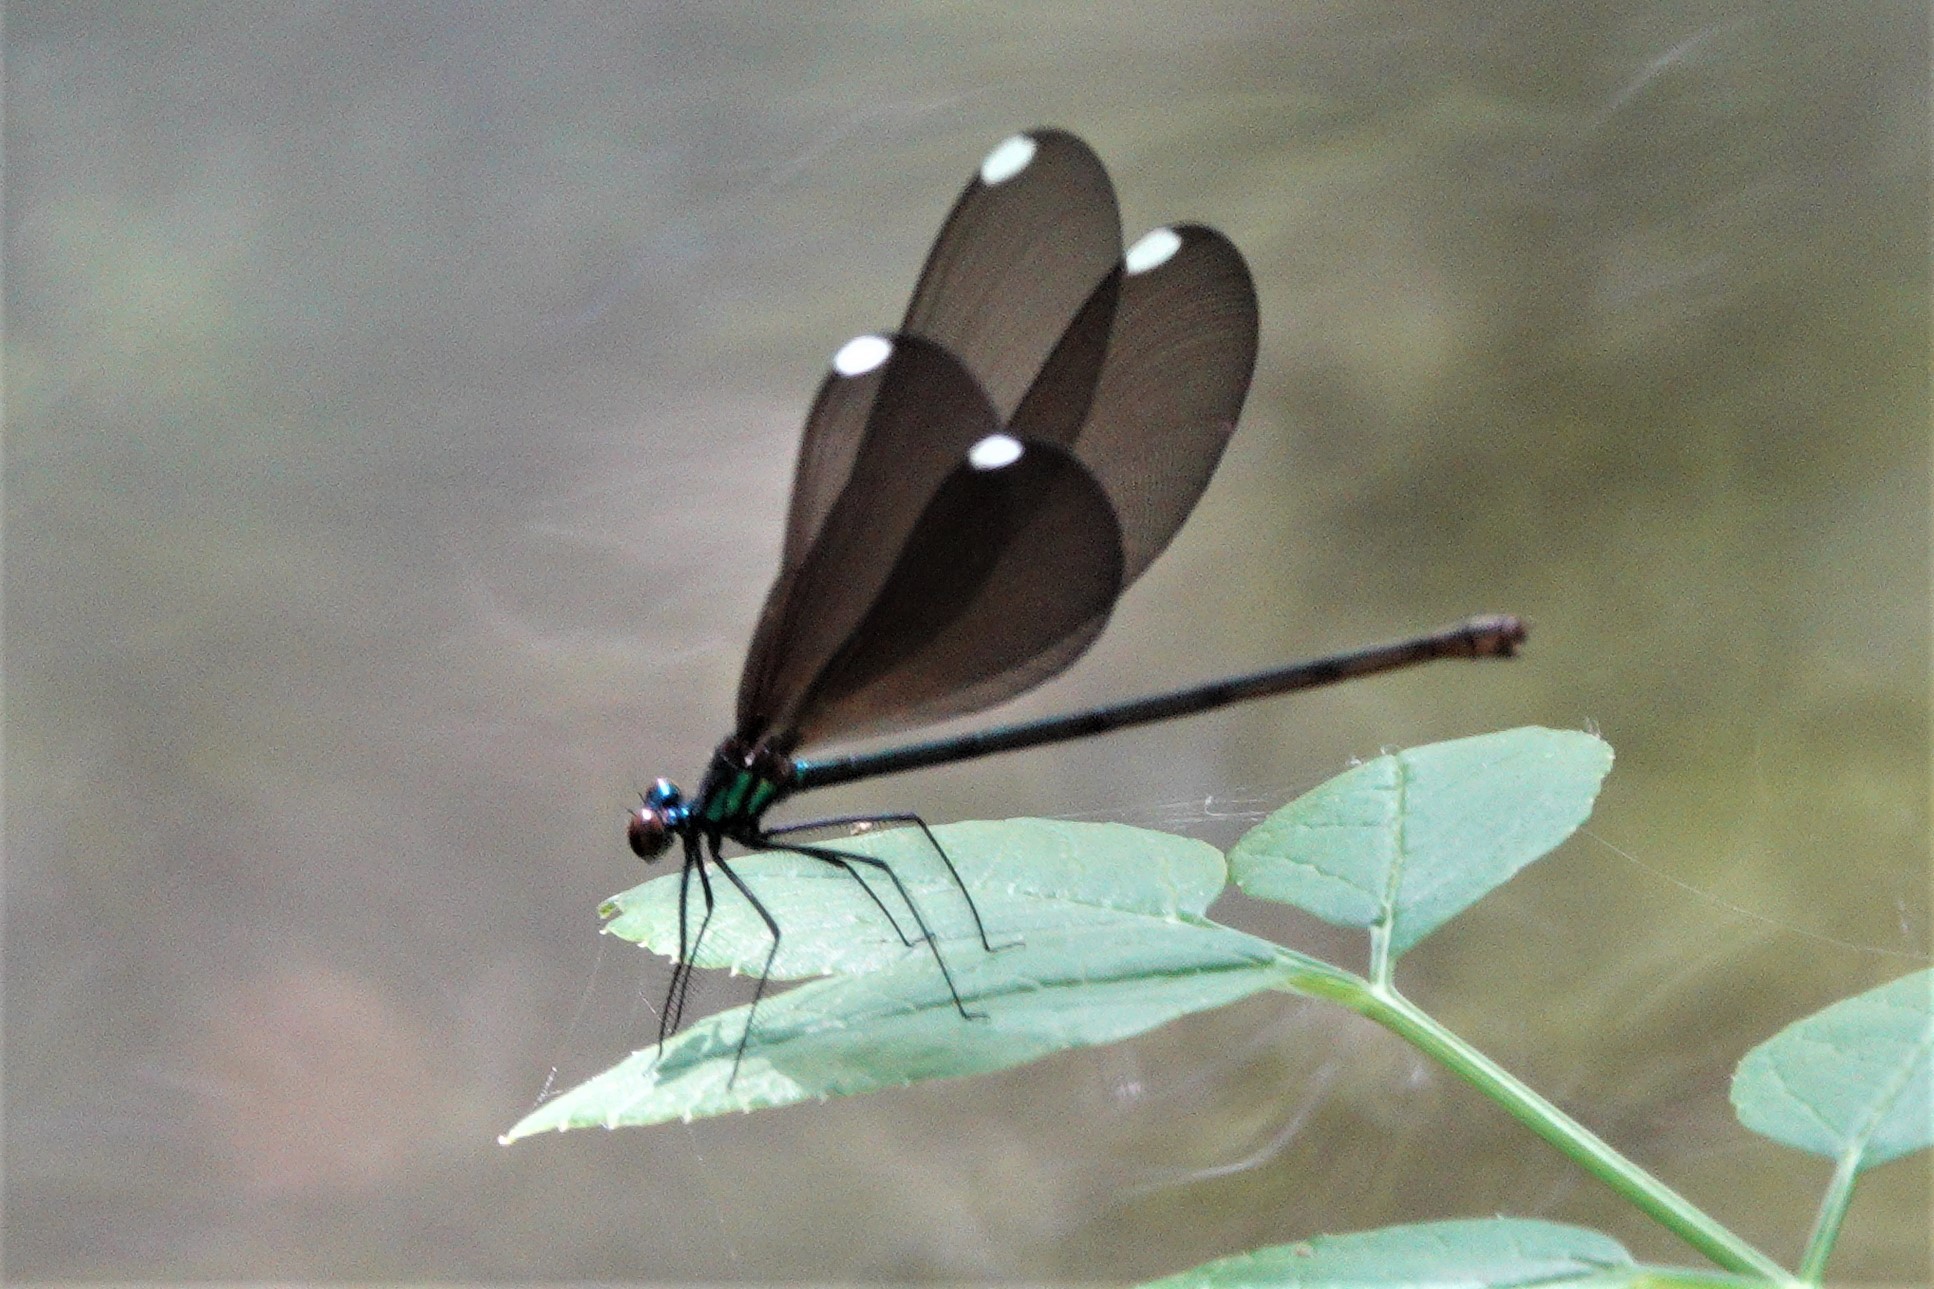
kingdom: Animalia
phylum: Arthropoda
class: Insecta
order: Odonata
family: Calopterygidae
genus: Calopteryx
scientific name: Calopteryx maculata
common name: Ebony jewelwing
